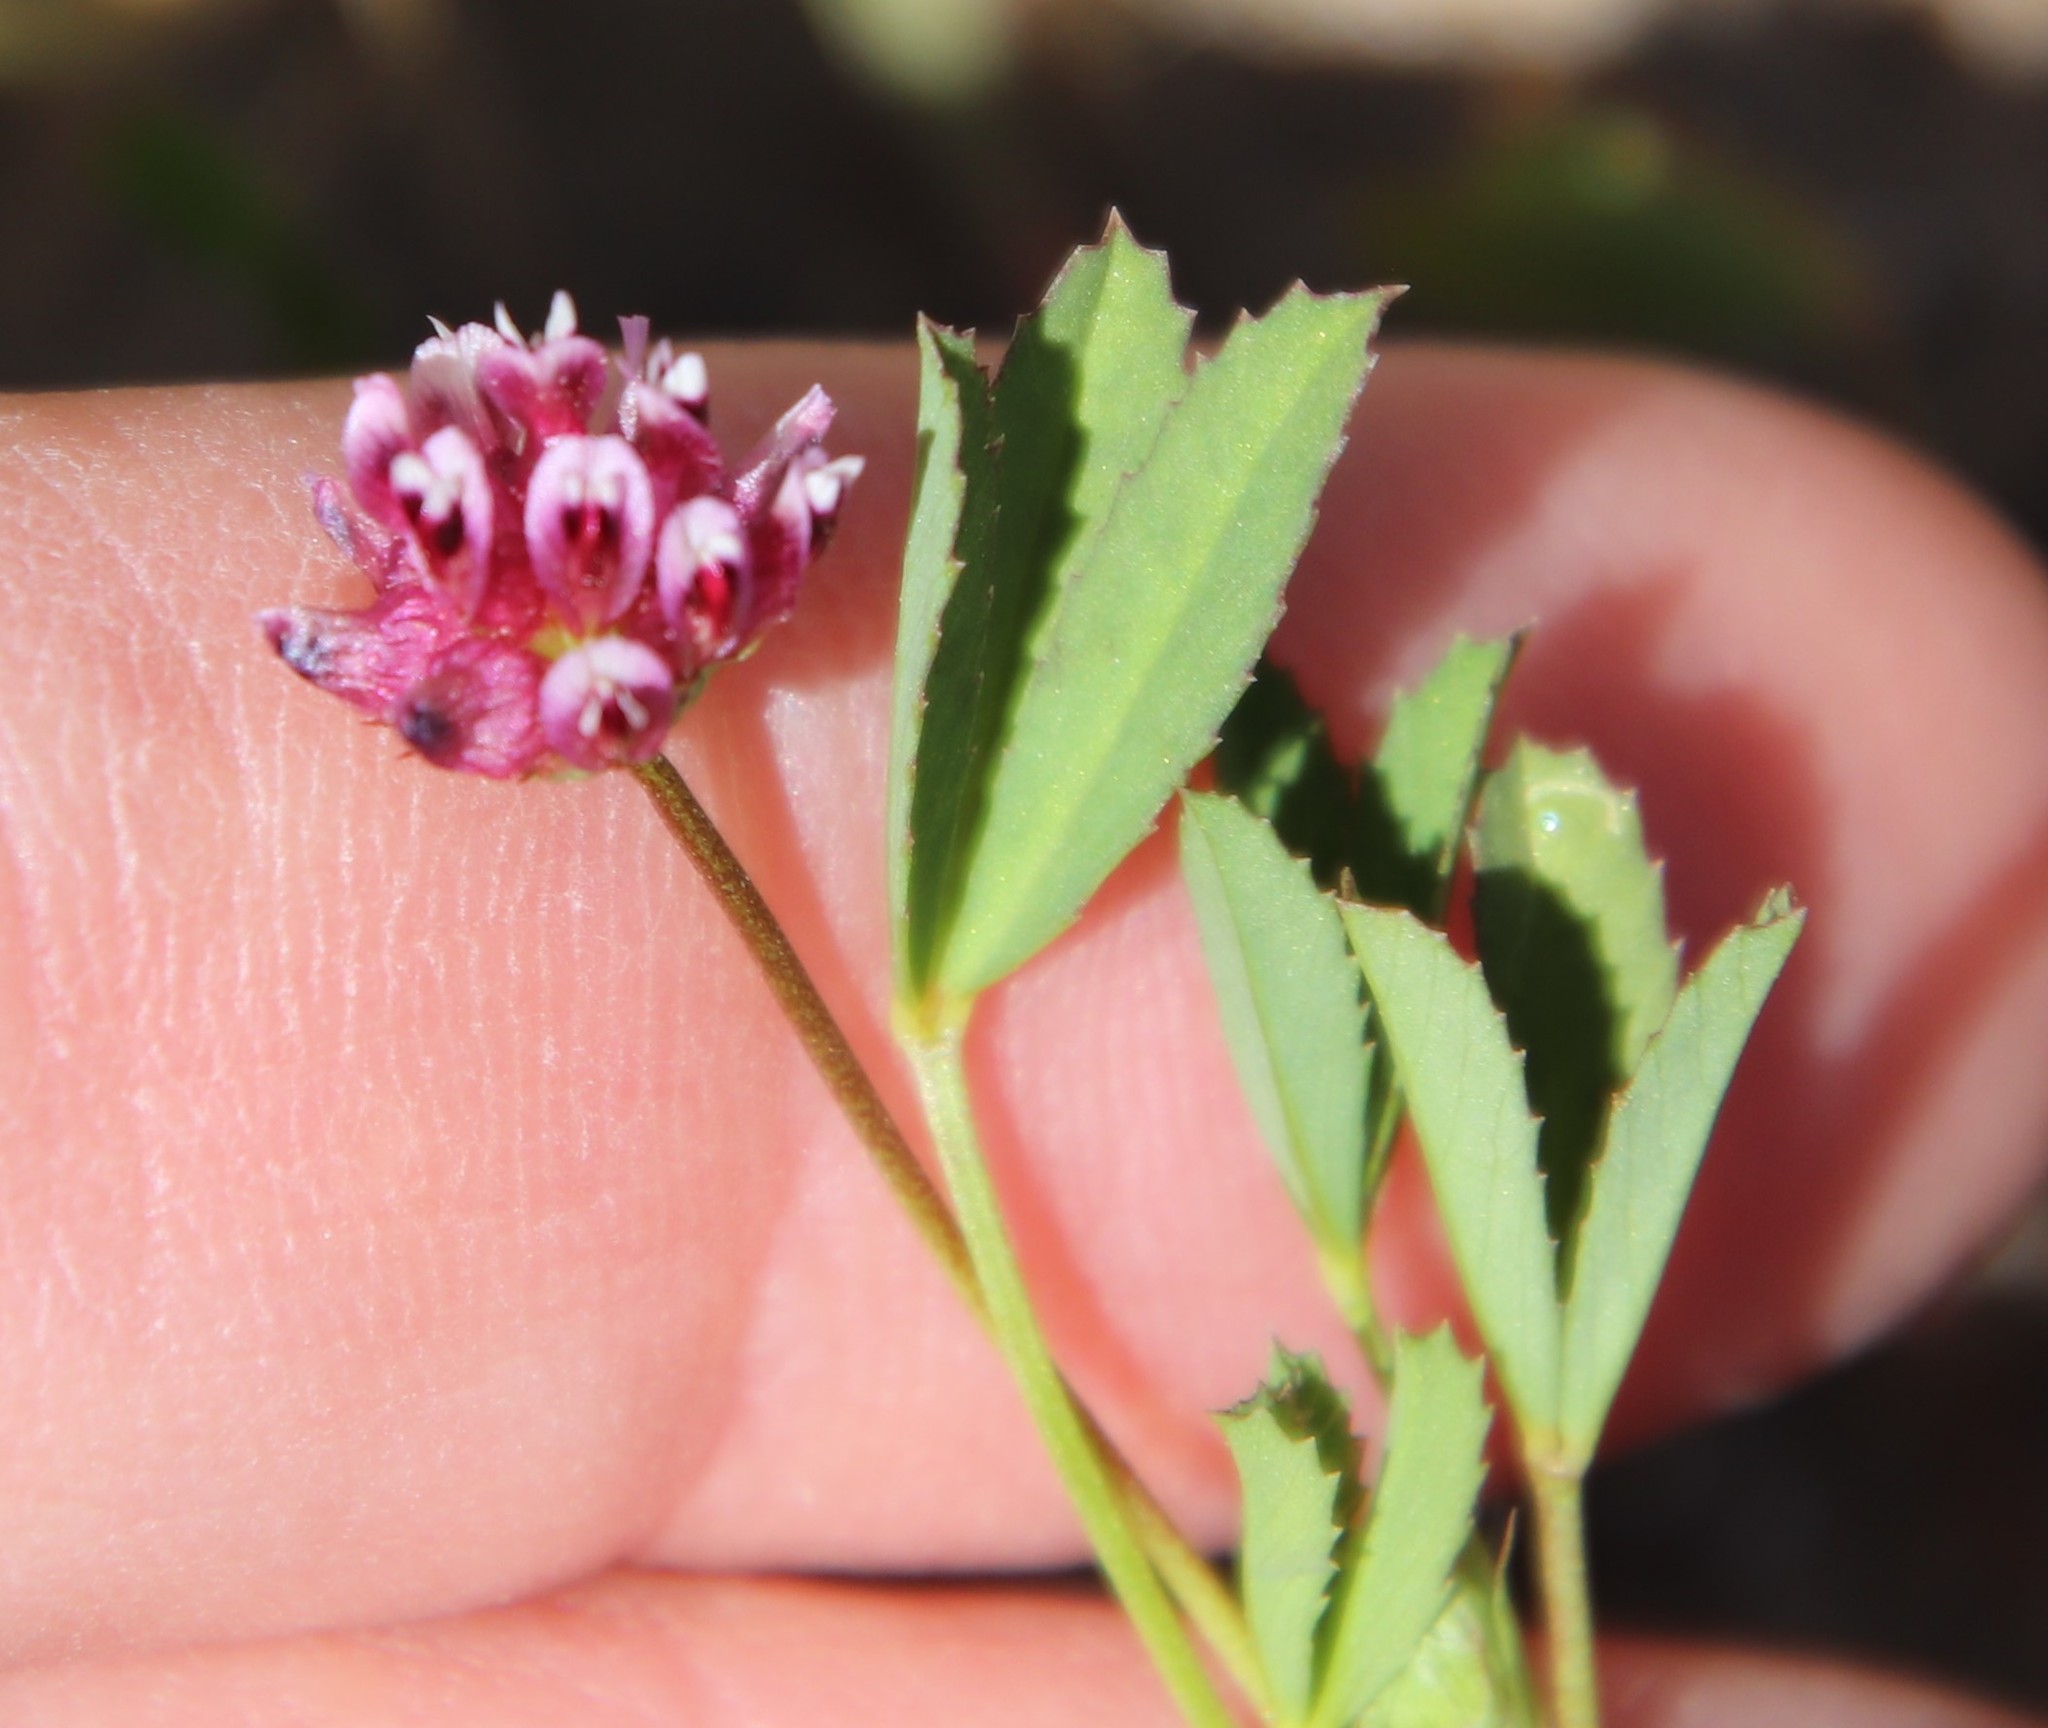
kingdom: Plantae
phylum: Tracheophyta
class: Magnoliopsida
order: Fabales
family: Fabaceae
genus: Trifolium
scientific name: Trifolium willdenovii
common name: Tomcat clover
